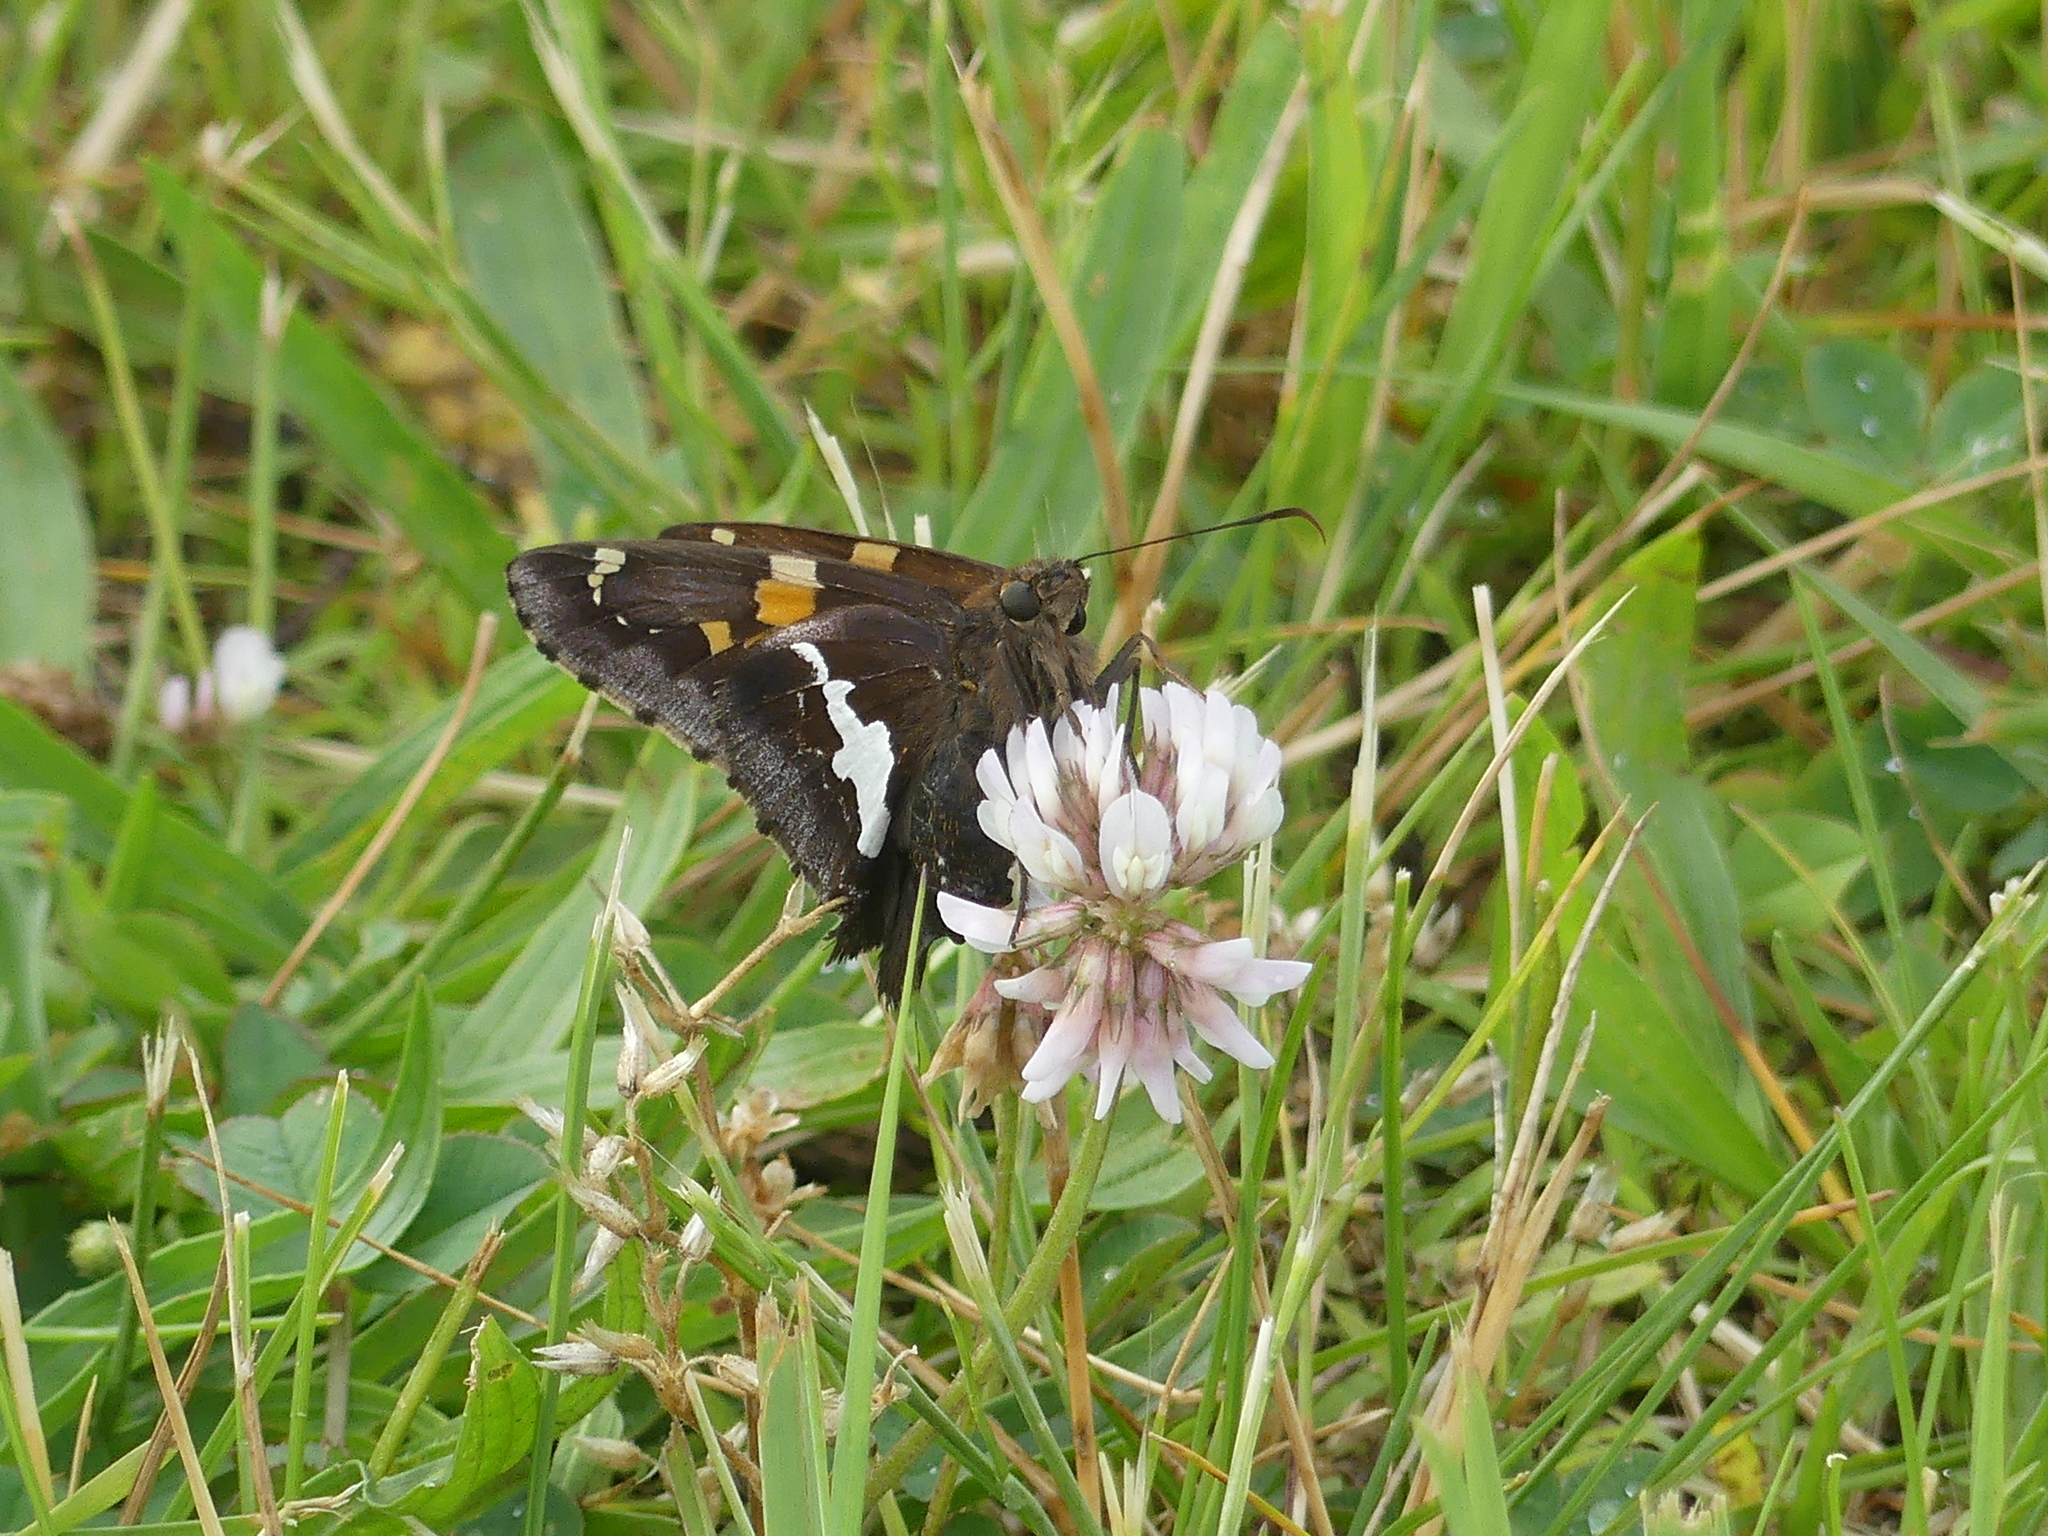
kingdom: Animalia
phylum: Arthropoda
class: Insecta
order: Lepidoptera
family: Hesperiidae
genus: Epargyreus
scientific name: Epargyreus clarus
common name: Silver-spotted skipper
